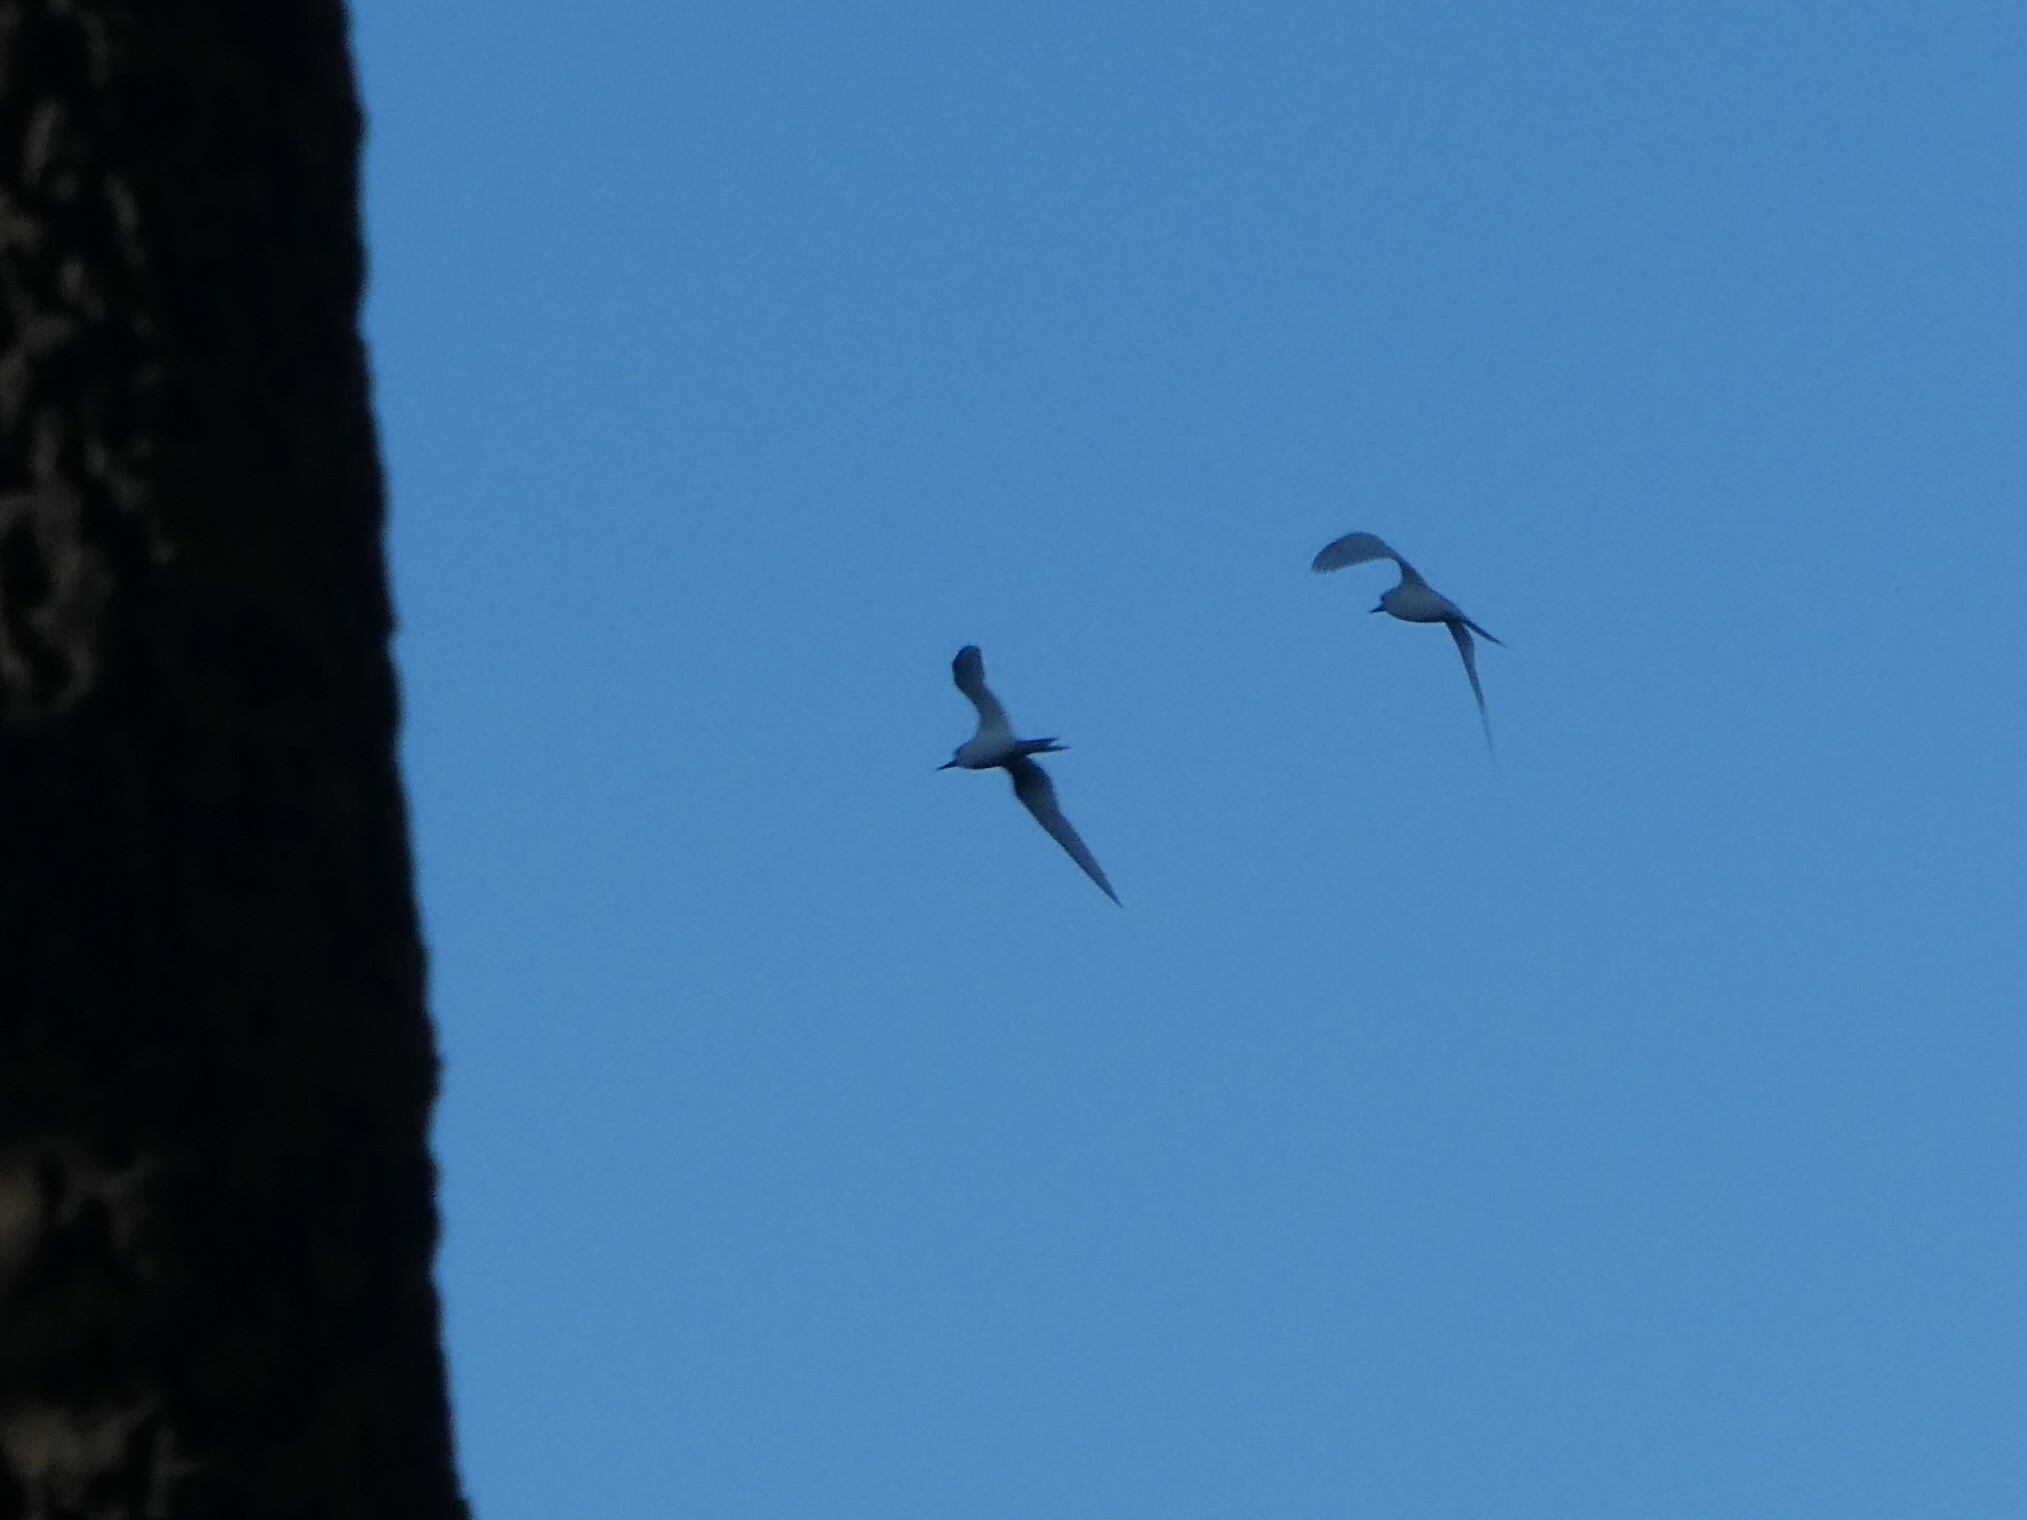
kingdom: Animalia
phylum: Chordata
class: Aves
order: Charadriiformes
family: Laridae
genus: Gygis
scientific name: Gygis alba
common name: White tern
